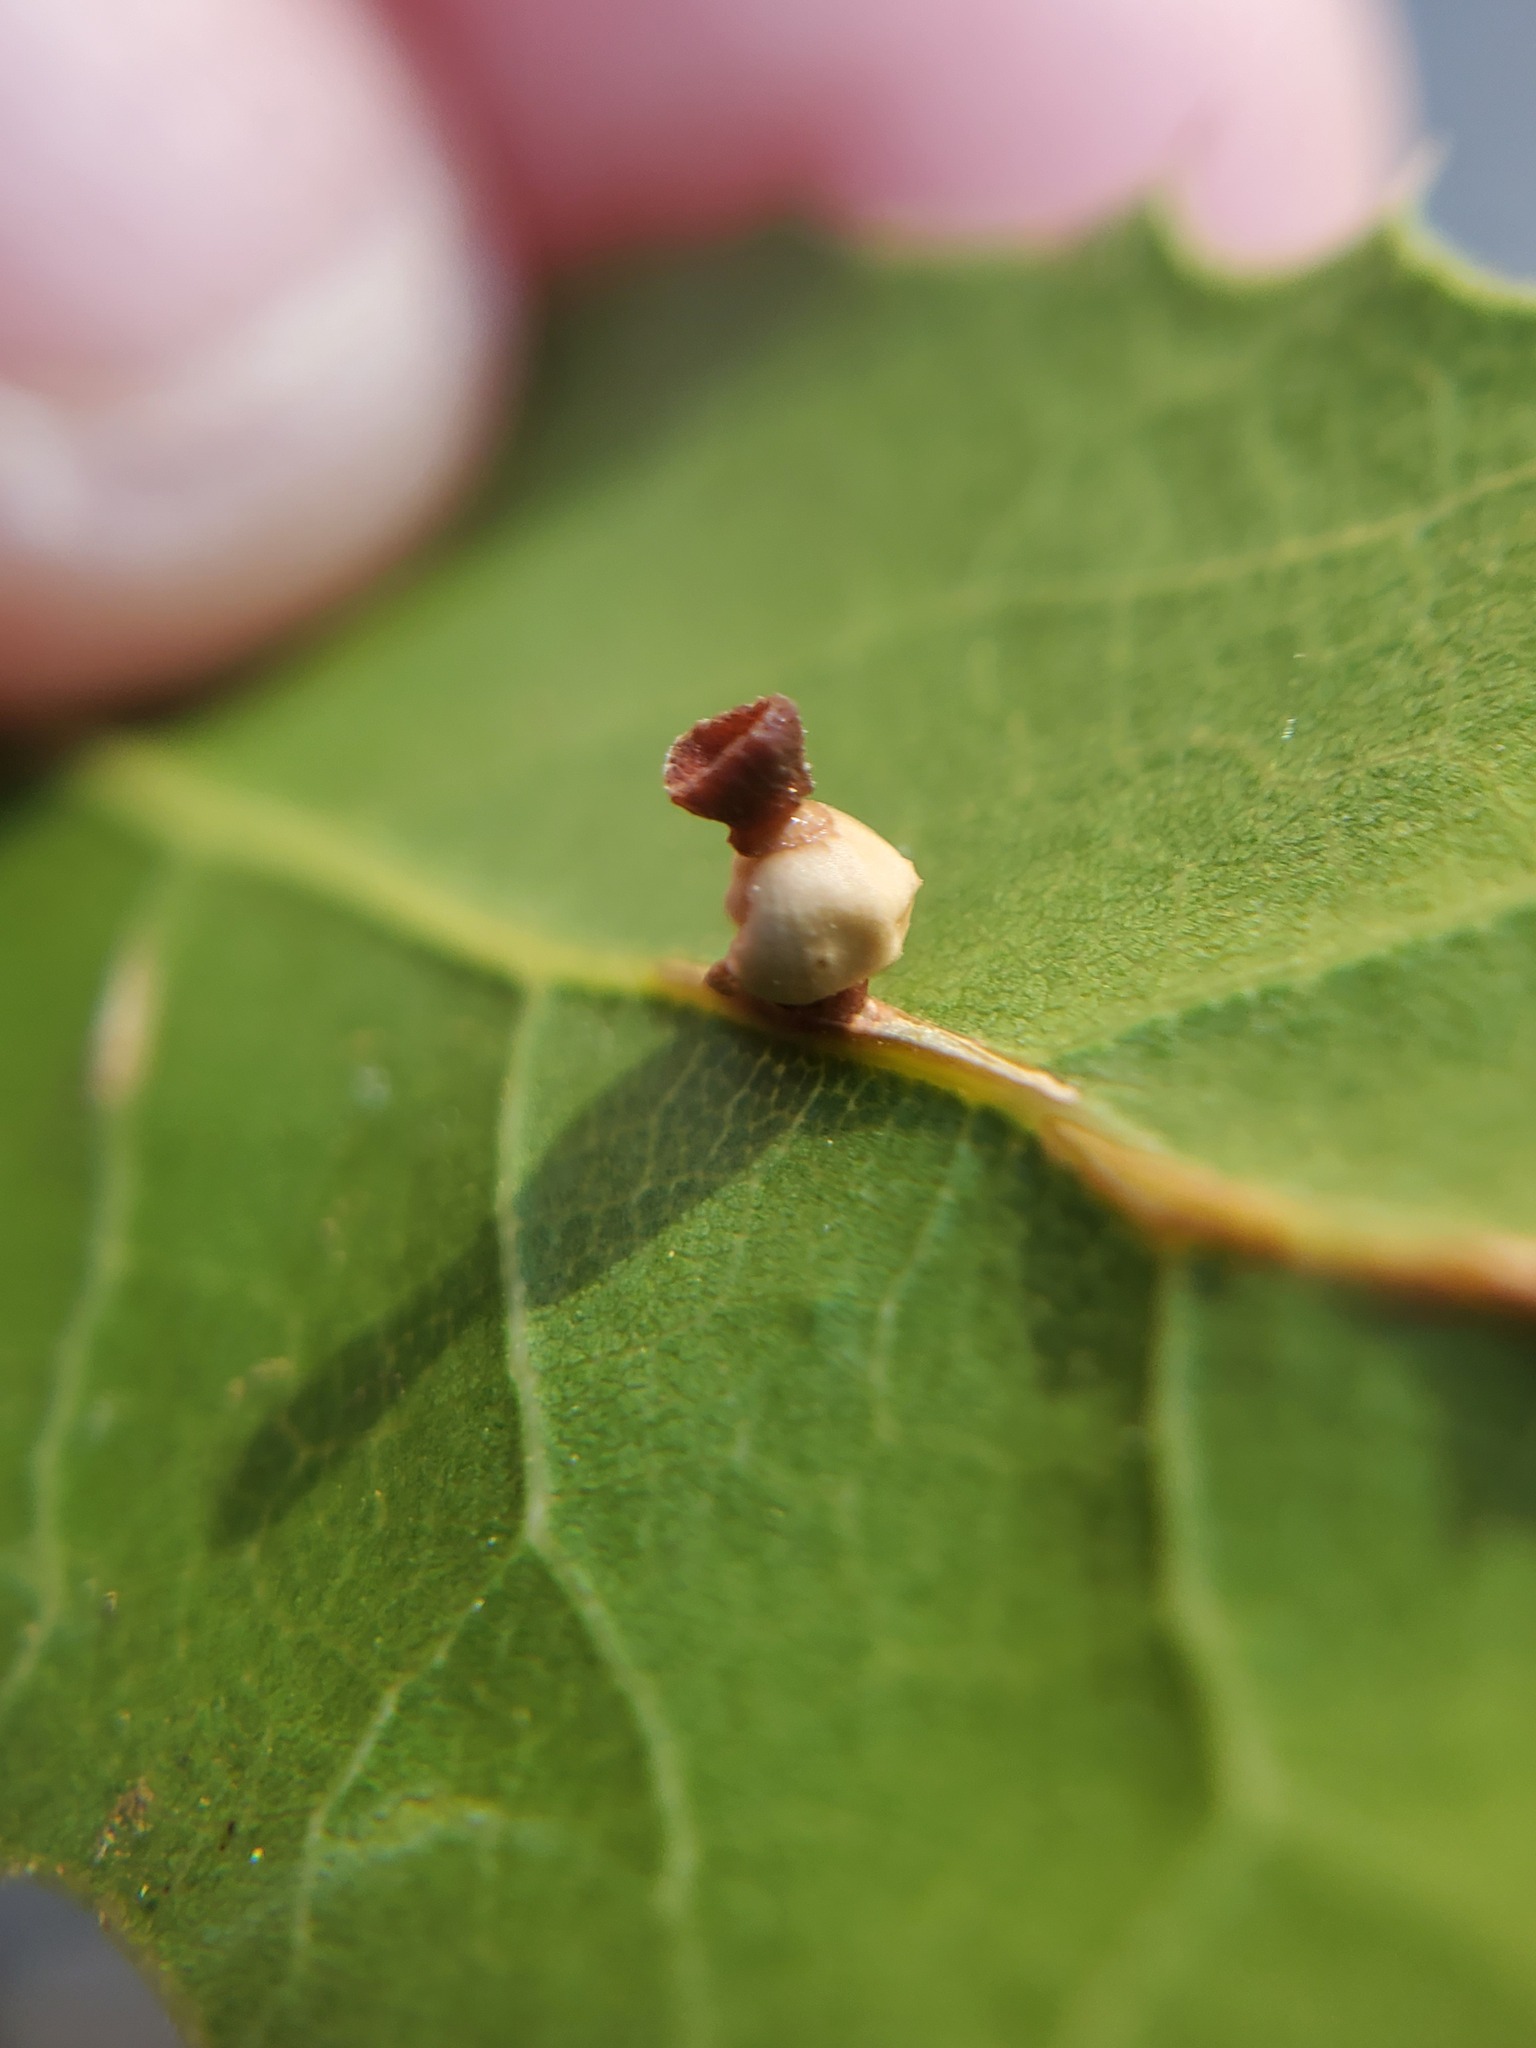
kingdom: Animalia
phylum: Arthropoda
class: Insecta
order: Hymenoptera
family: Cynipidae
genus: Callirhytis
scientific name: Callirhytis
